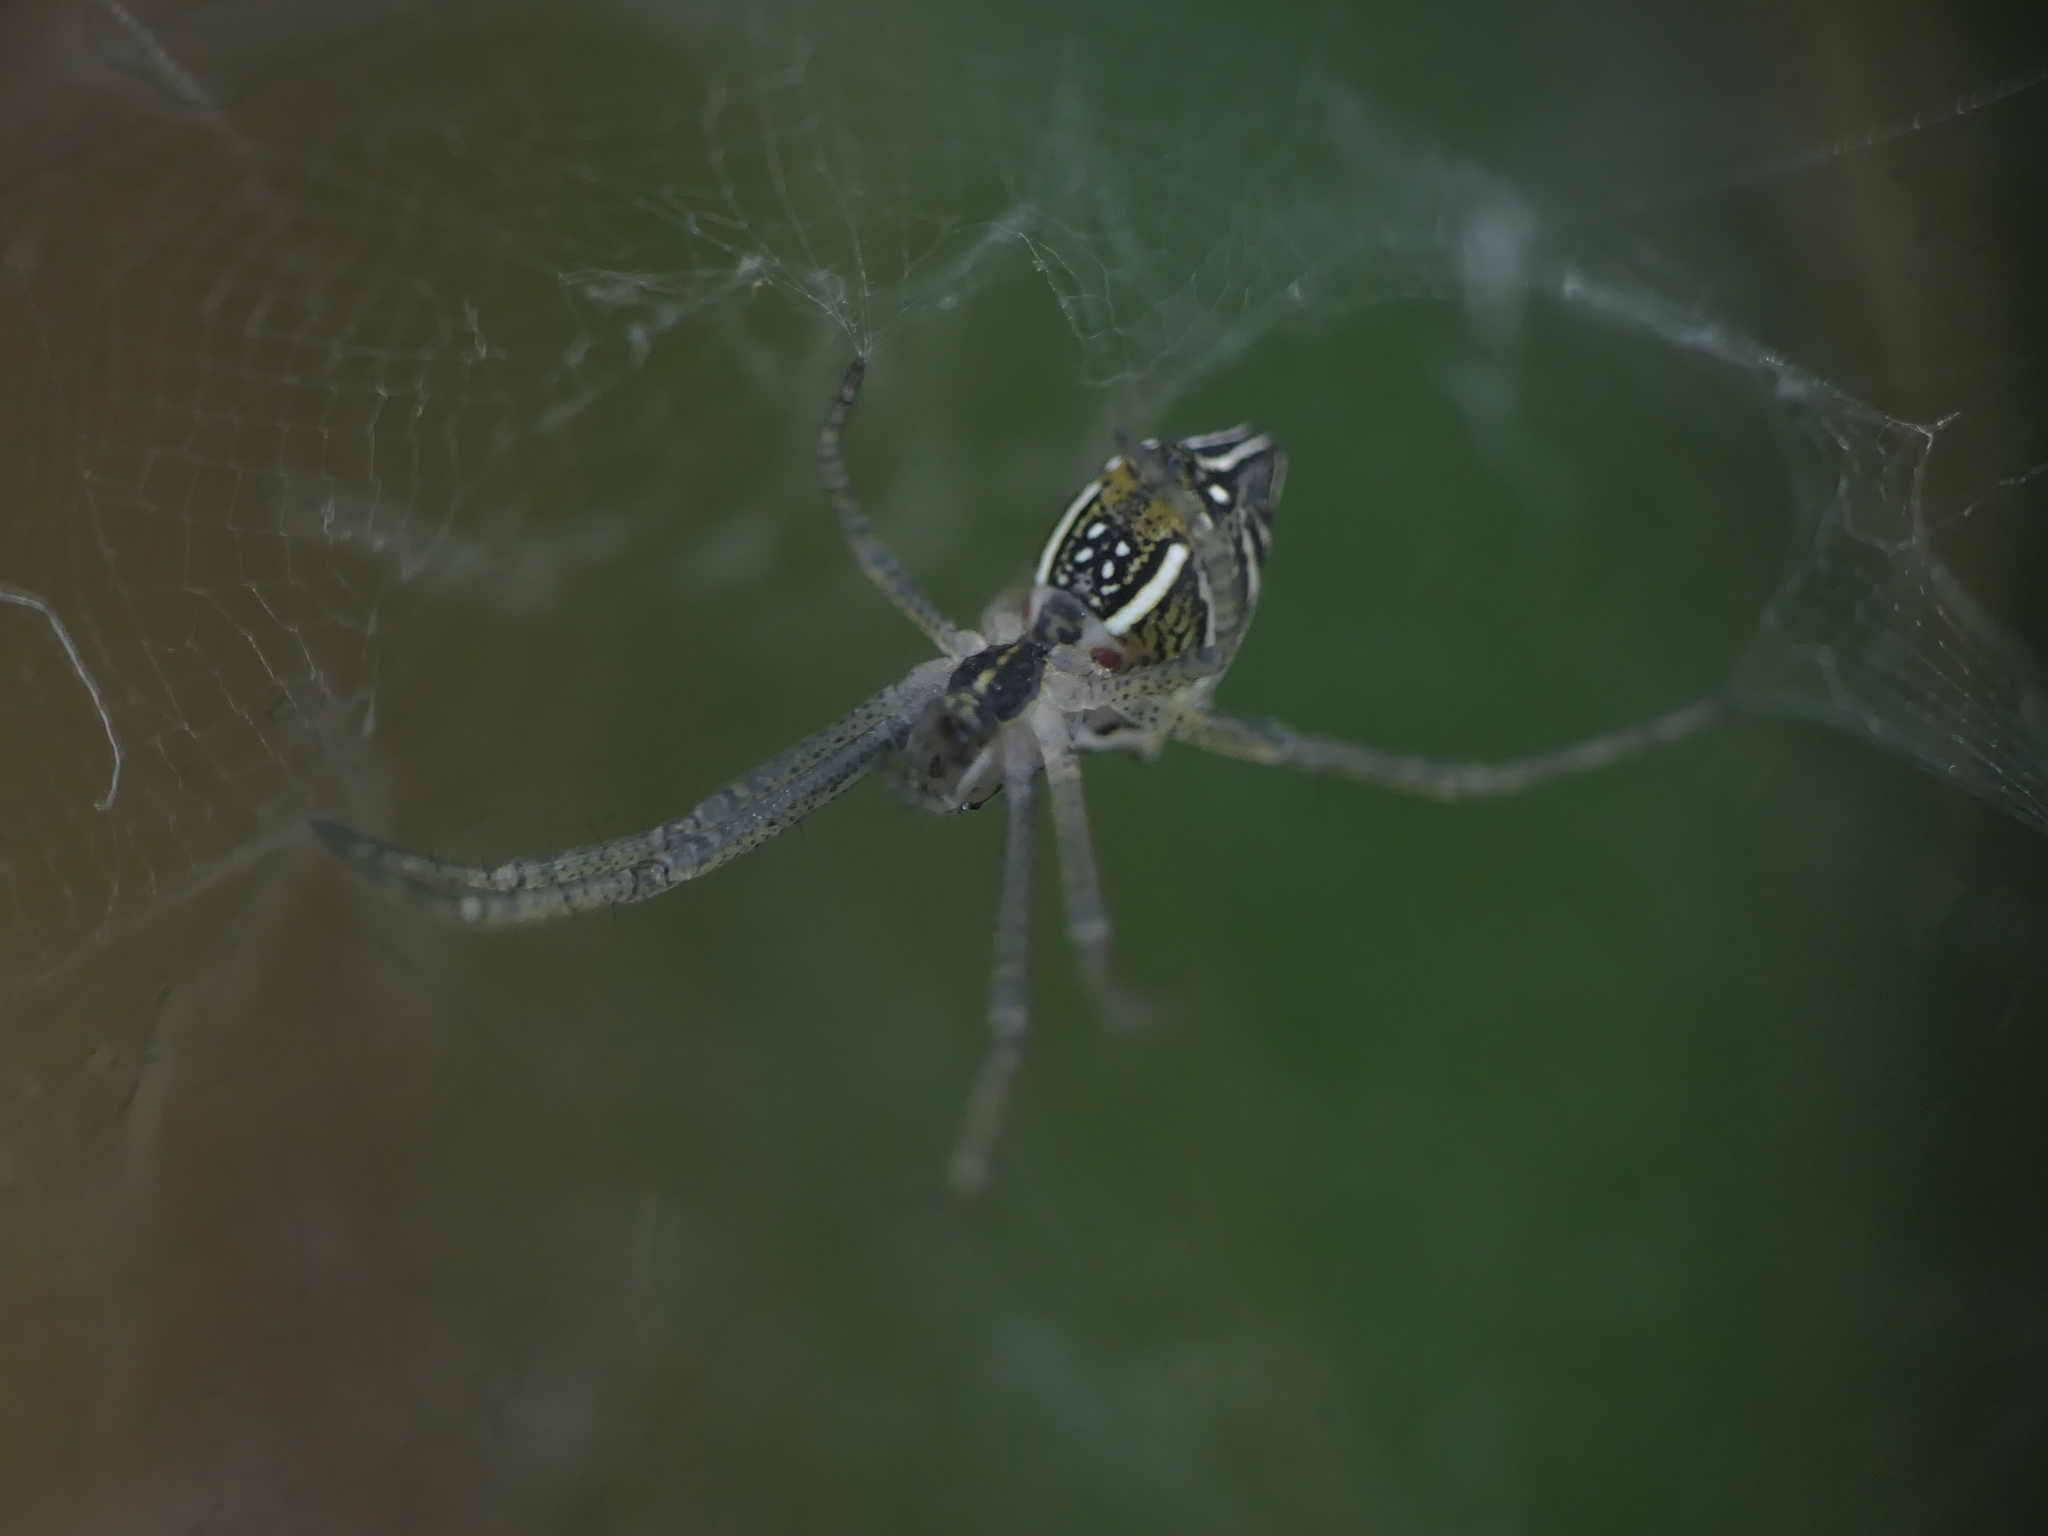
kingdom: Animalia
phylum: Arthropoda
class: Arachnida
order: Araneae
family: Araneidae
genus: Cyrtophora
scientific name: Cyrtophora cicatrosa
